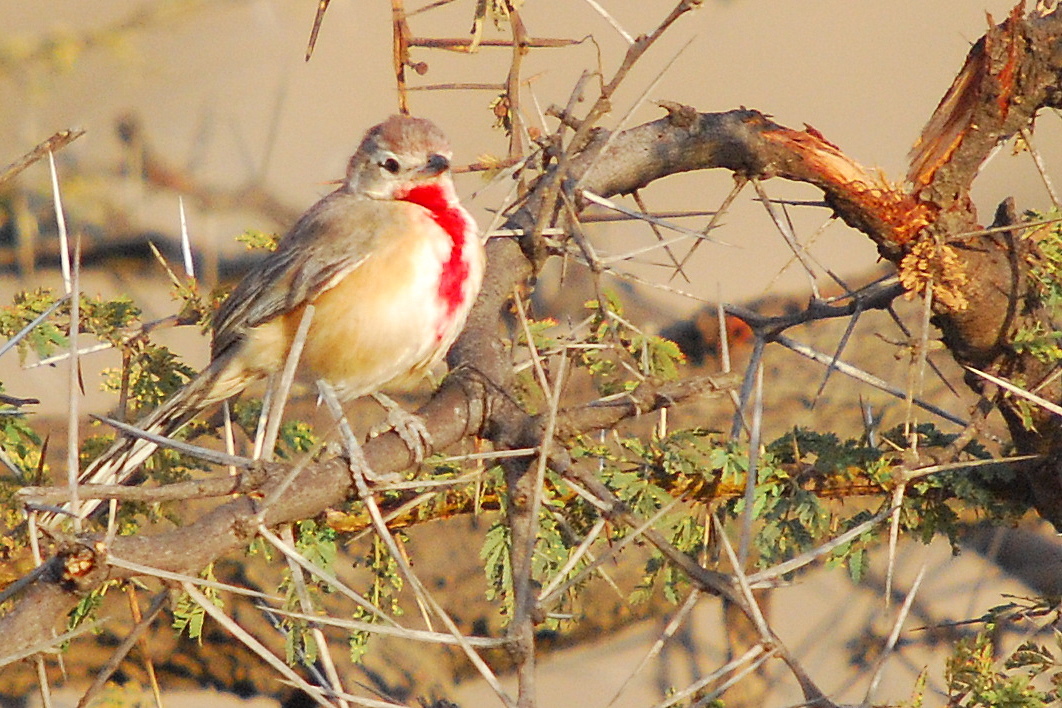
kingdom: Animalia
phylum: Chordata
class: Aves
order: Passeriformes
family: Malaconotidae
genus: Telophorus
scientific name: Telophorus cruentus
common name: Rosy-patched bushshrike
